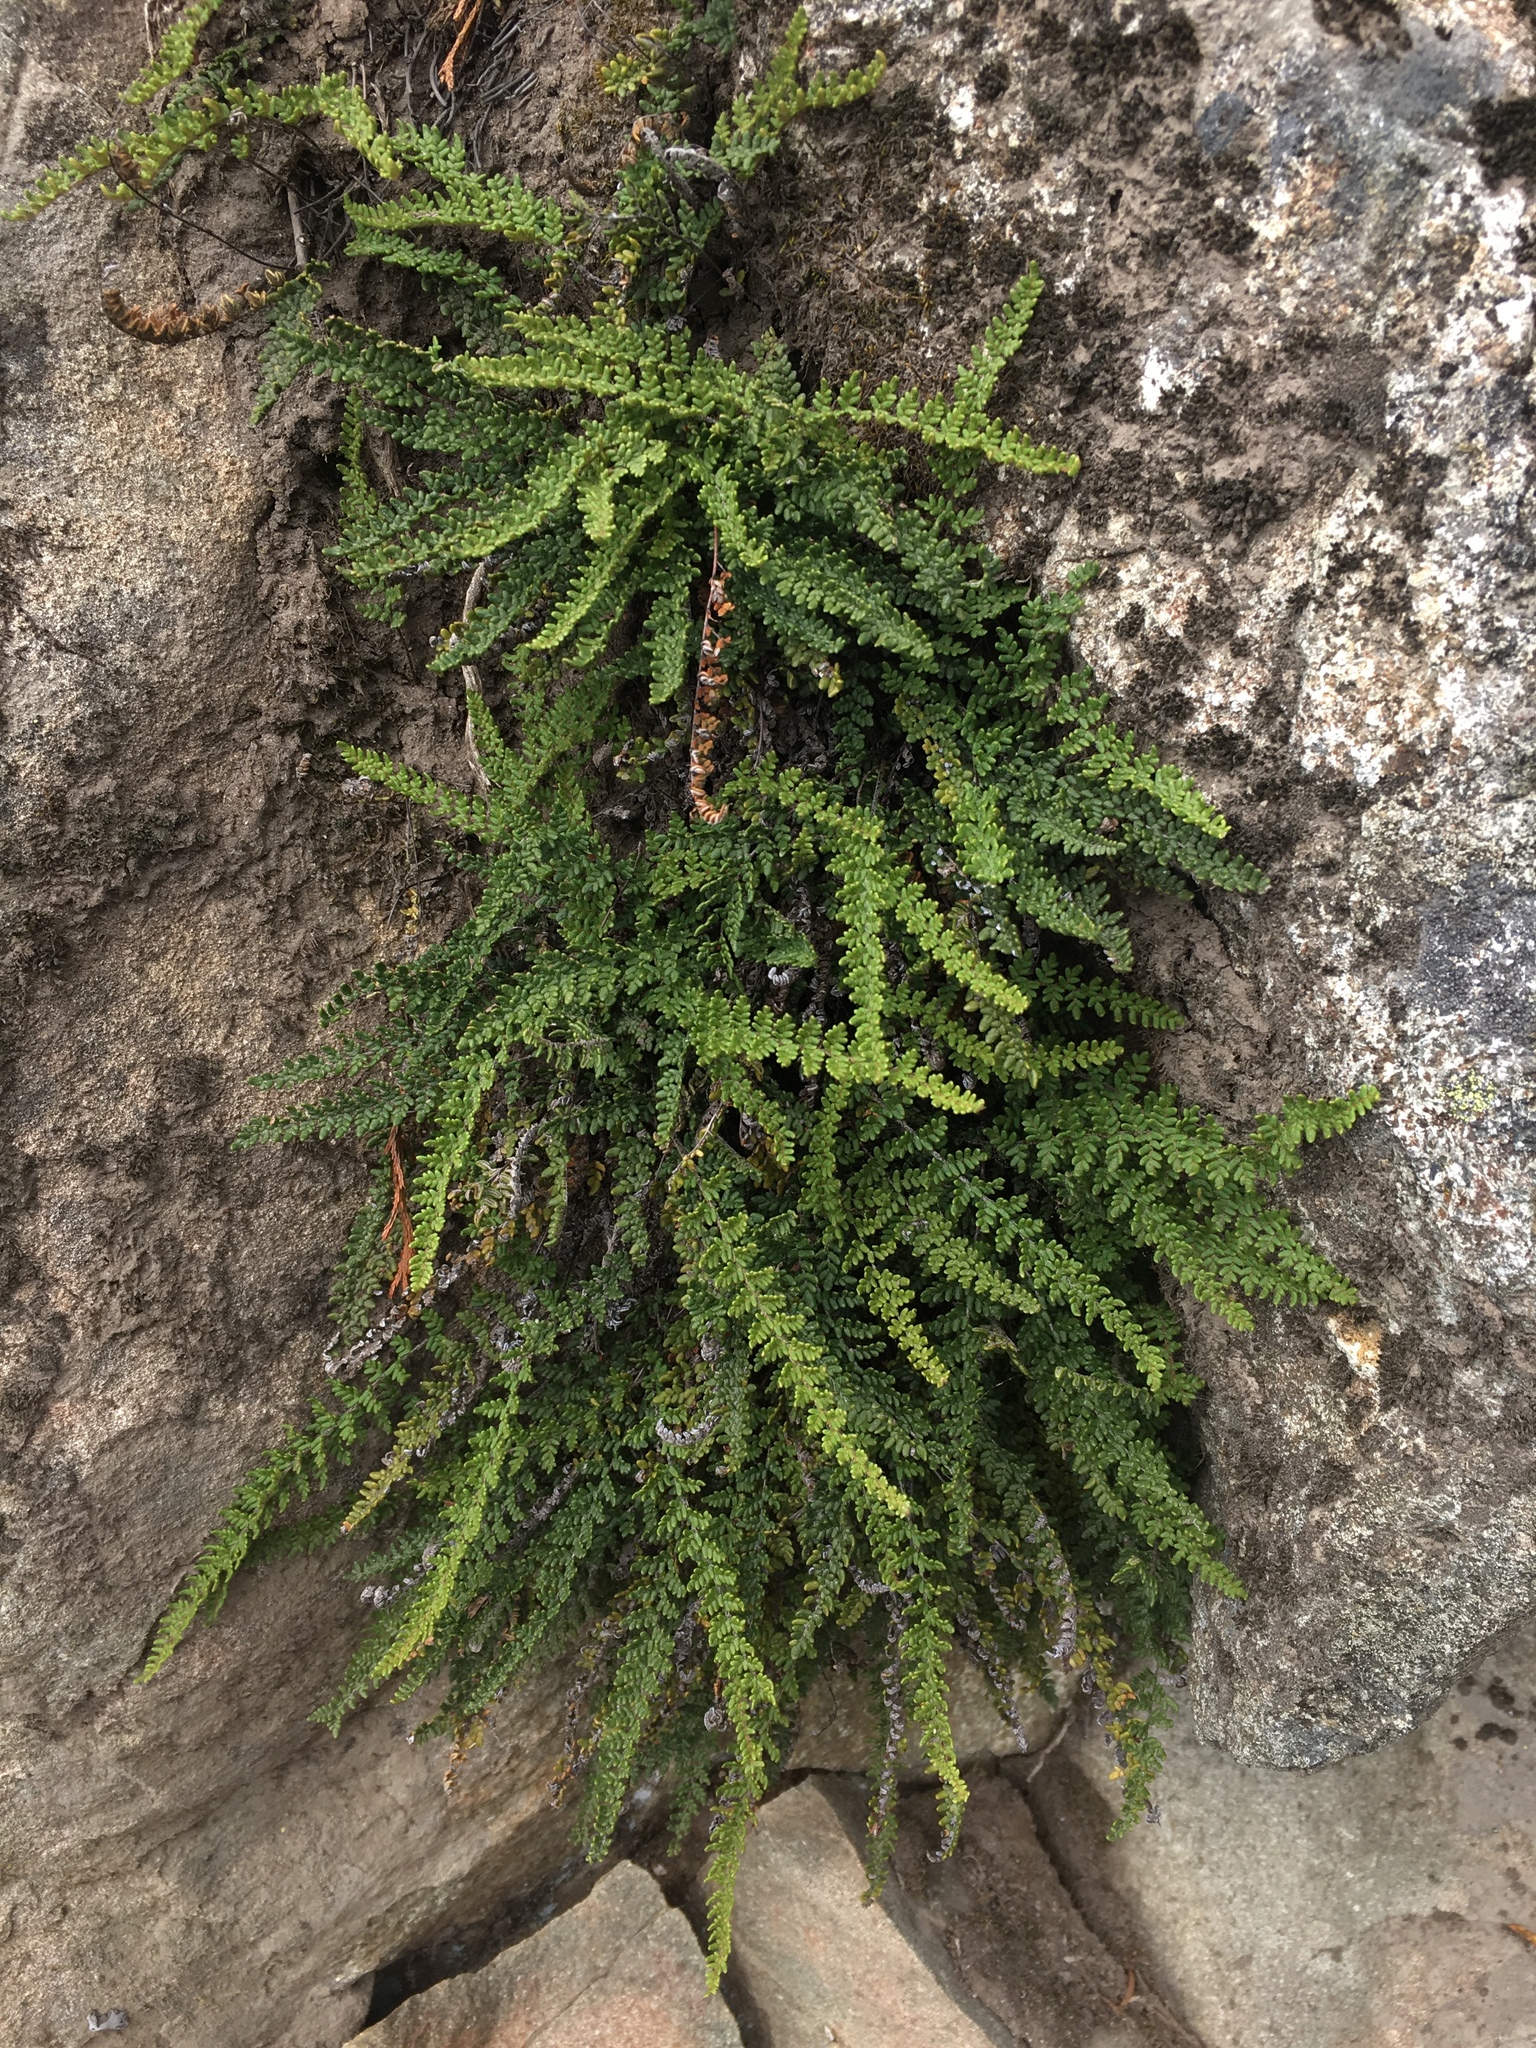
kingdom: Plantae
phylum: Tracheophyta
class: Polypodiopsida
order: Polypodiales
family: Pteridaceae
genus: Myriopteris
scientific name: Myriopteris gracillima
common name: Lace fern
